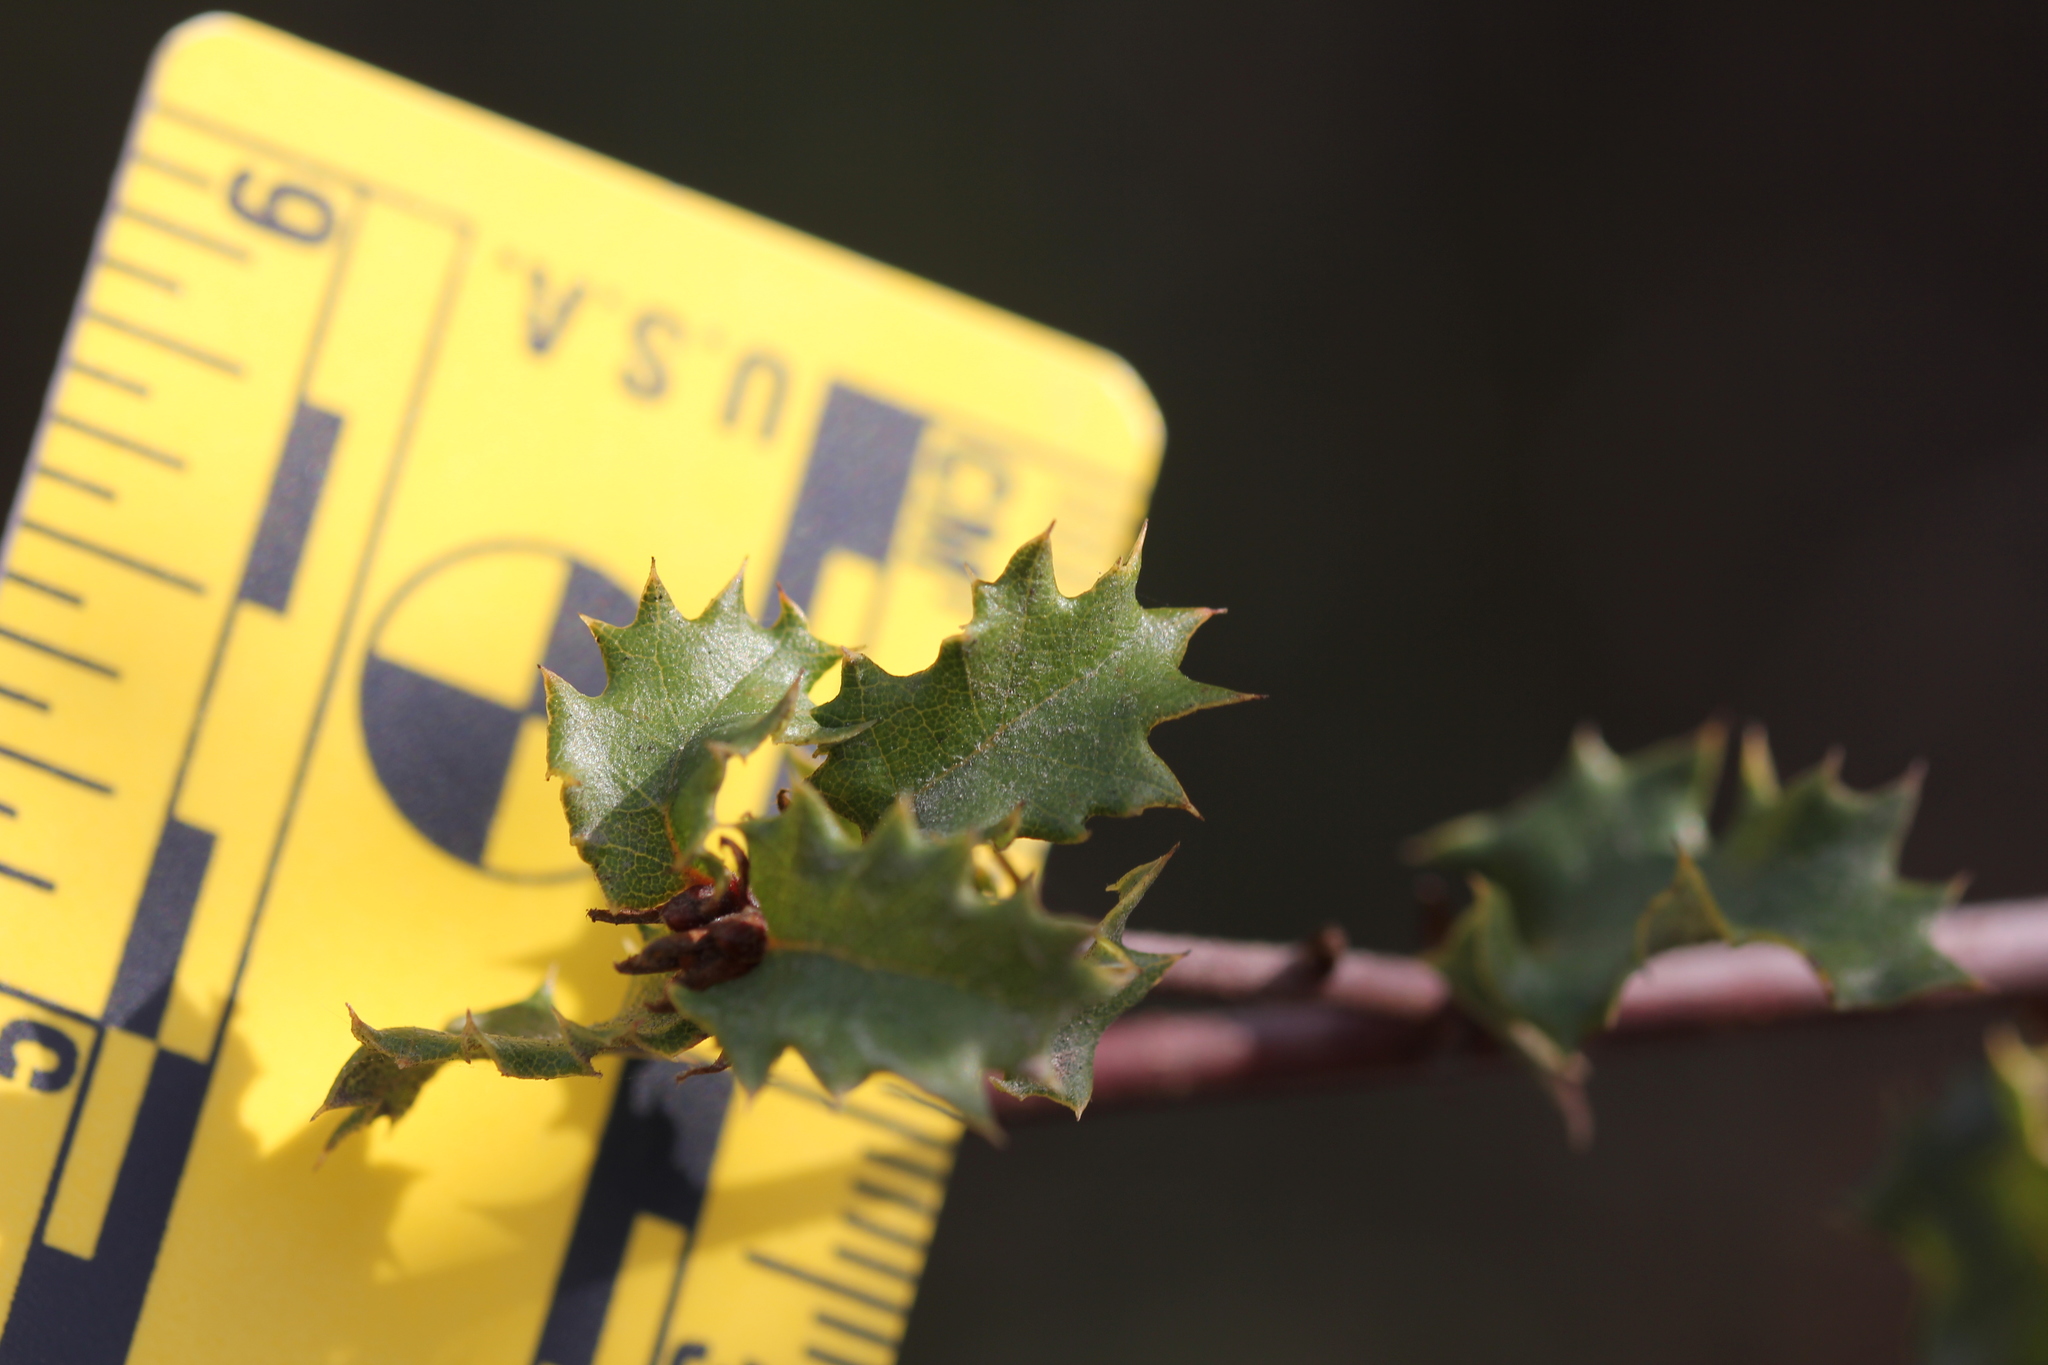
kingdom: Plantae
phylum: Tracheophyta
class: Magnoliopsida
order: Fagales
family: Fagaceae
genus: Quercus
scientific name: Quercus dumosa
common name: Coastal sage scrub oak
